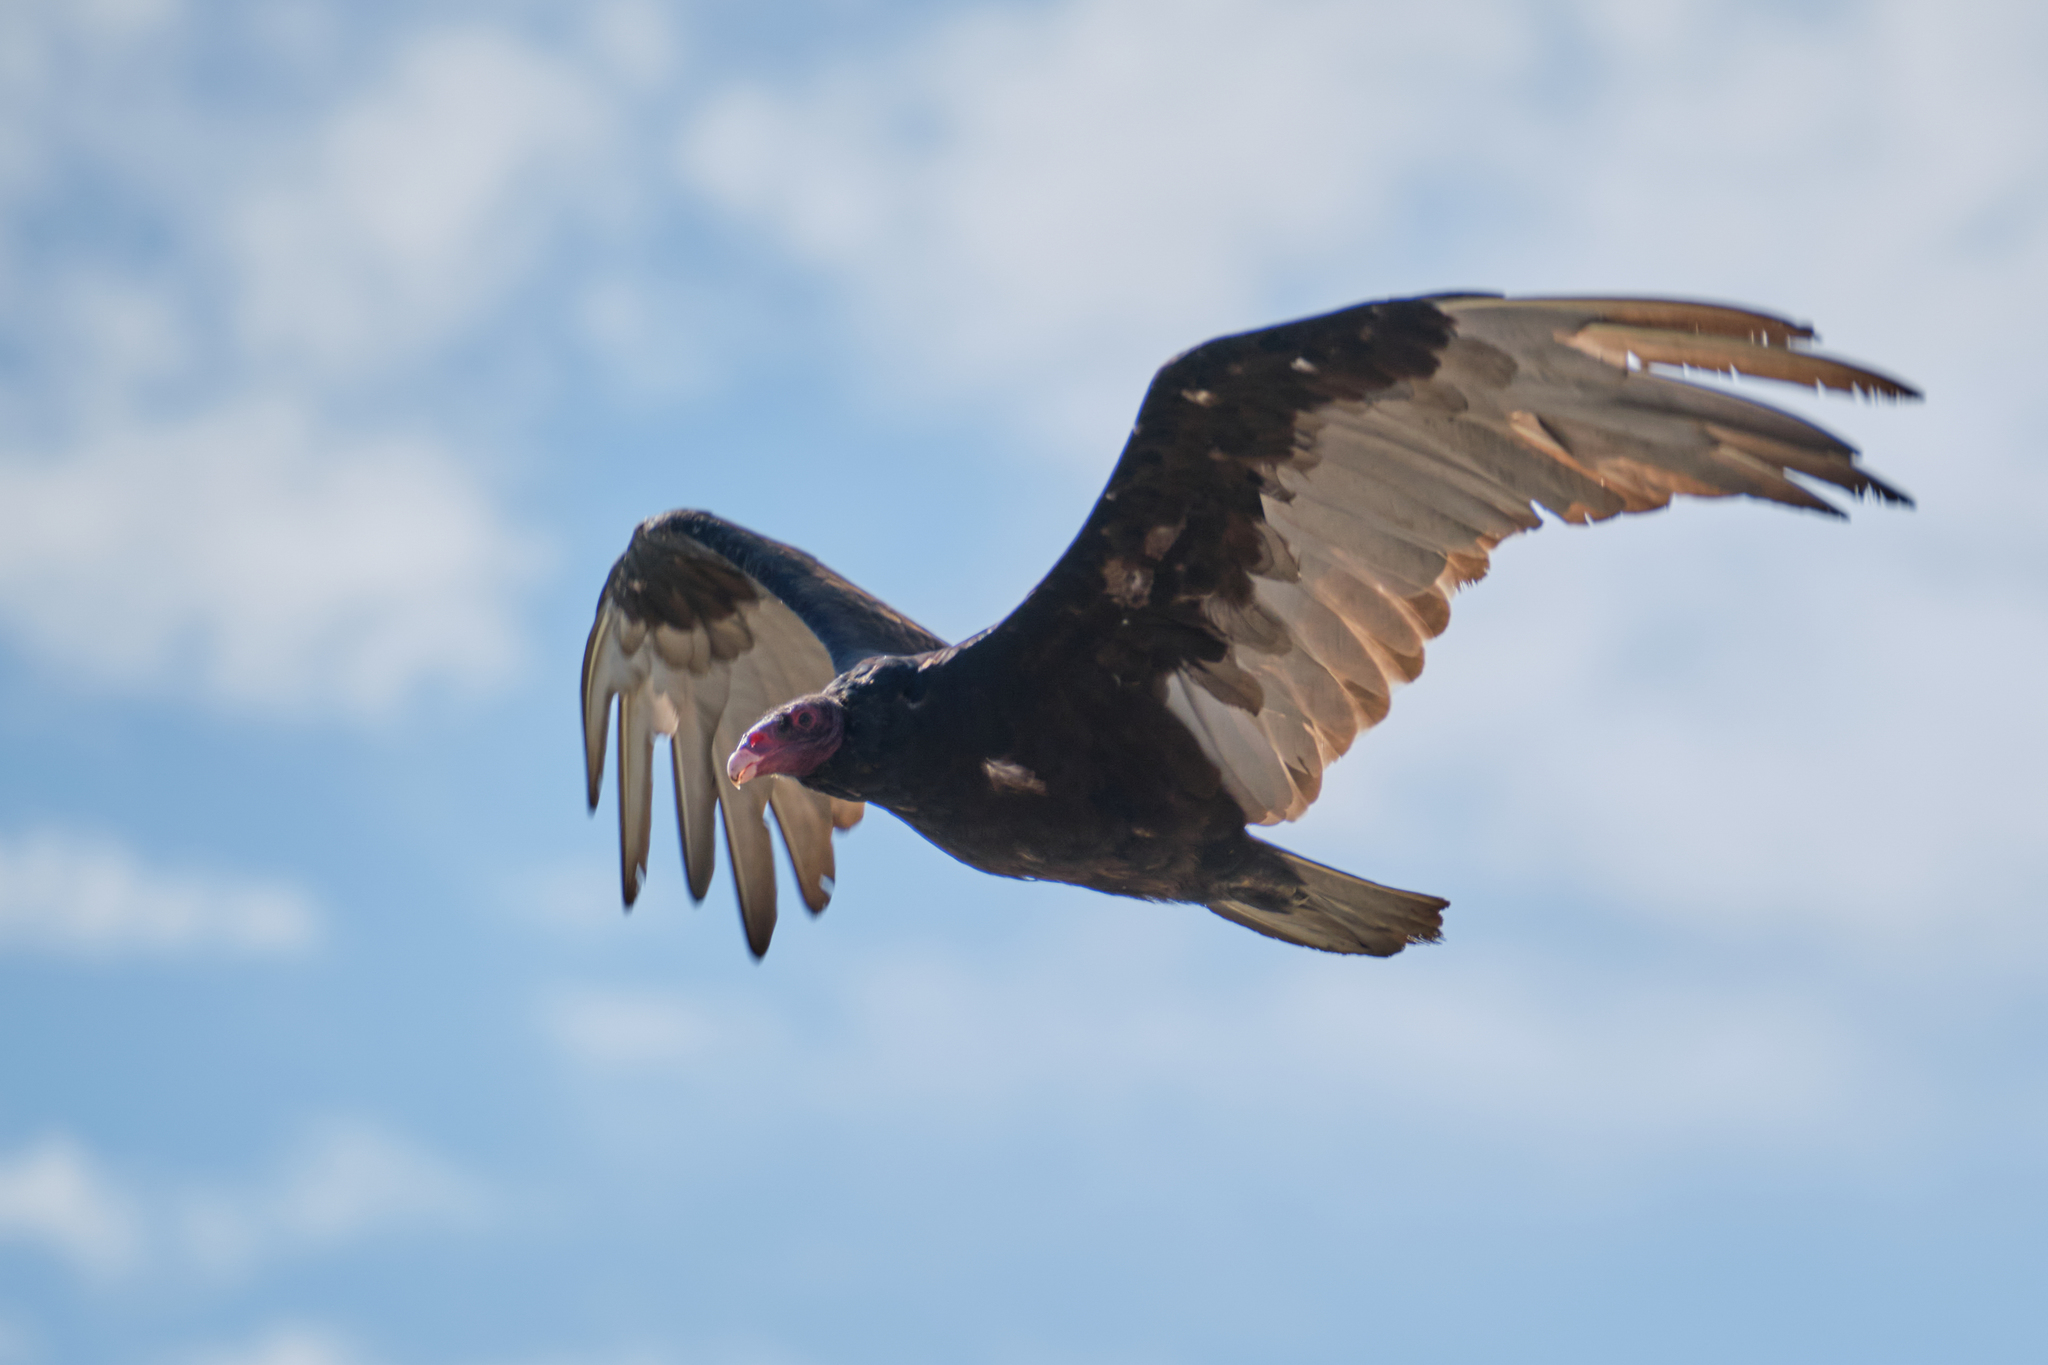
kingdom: Animalia
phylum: Chordata
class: Aves
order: Accipitriformes
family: Cathartidae
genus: Cathartes
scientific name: Cathartes aura
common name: Turkey vulture
